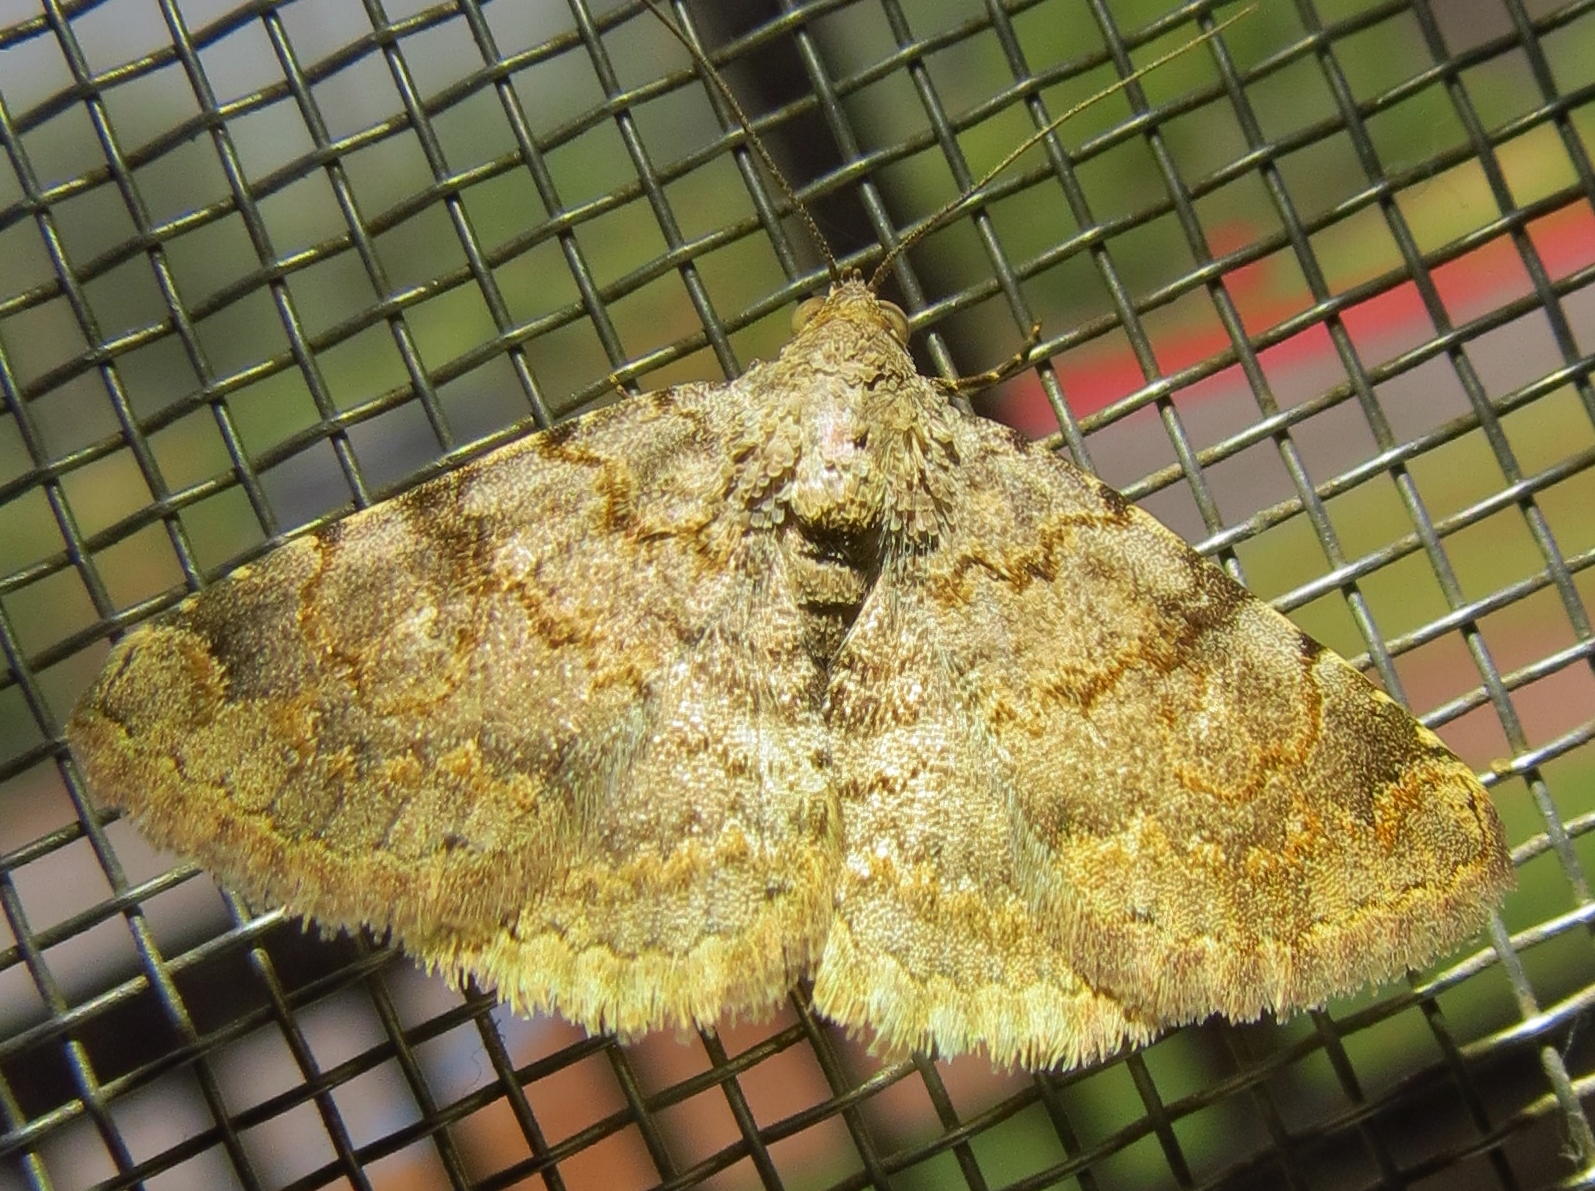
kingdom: Animalia
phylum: Arthropoda
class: Insecta
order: Lepidoptera
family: Erebidae
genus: Toxonprucha
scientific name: Toxonprucha volucris
